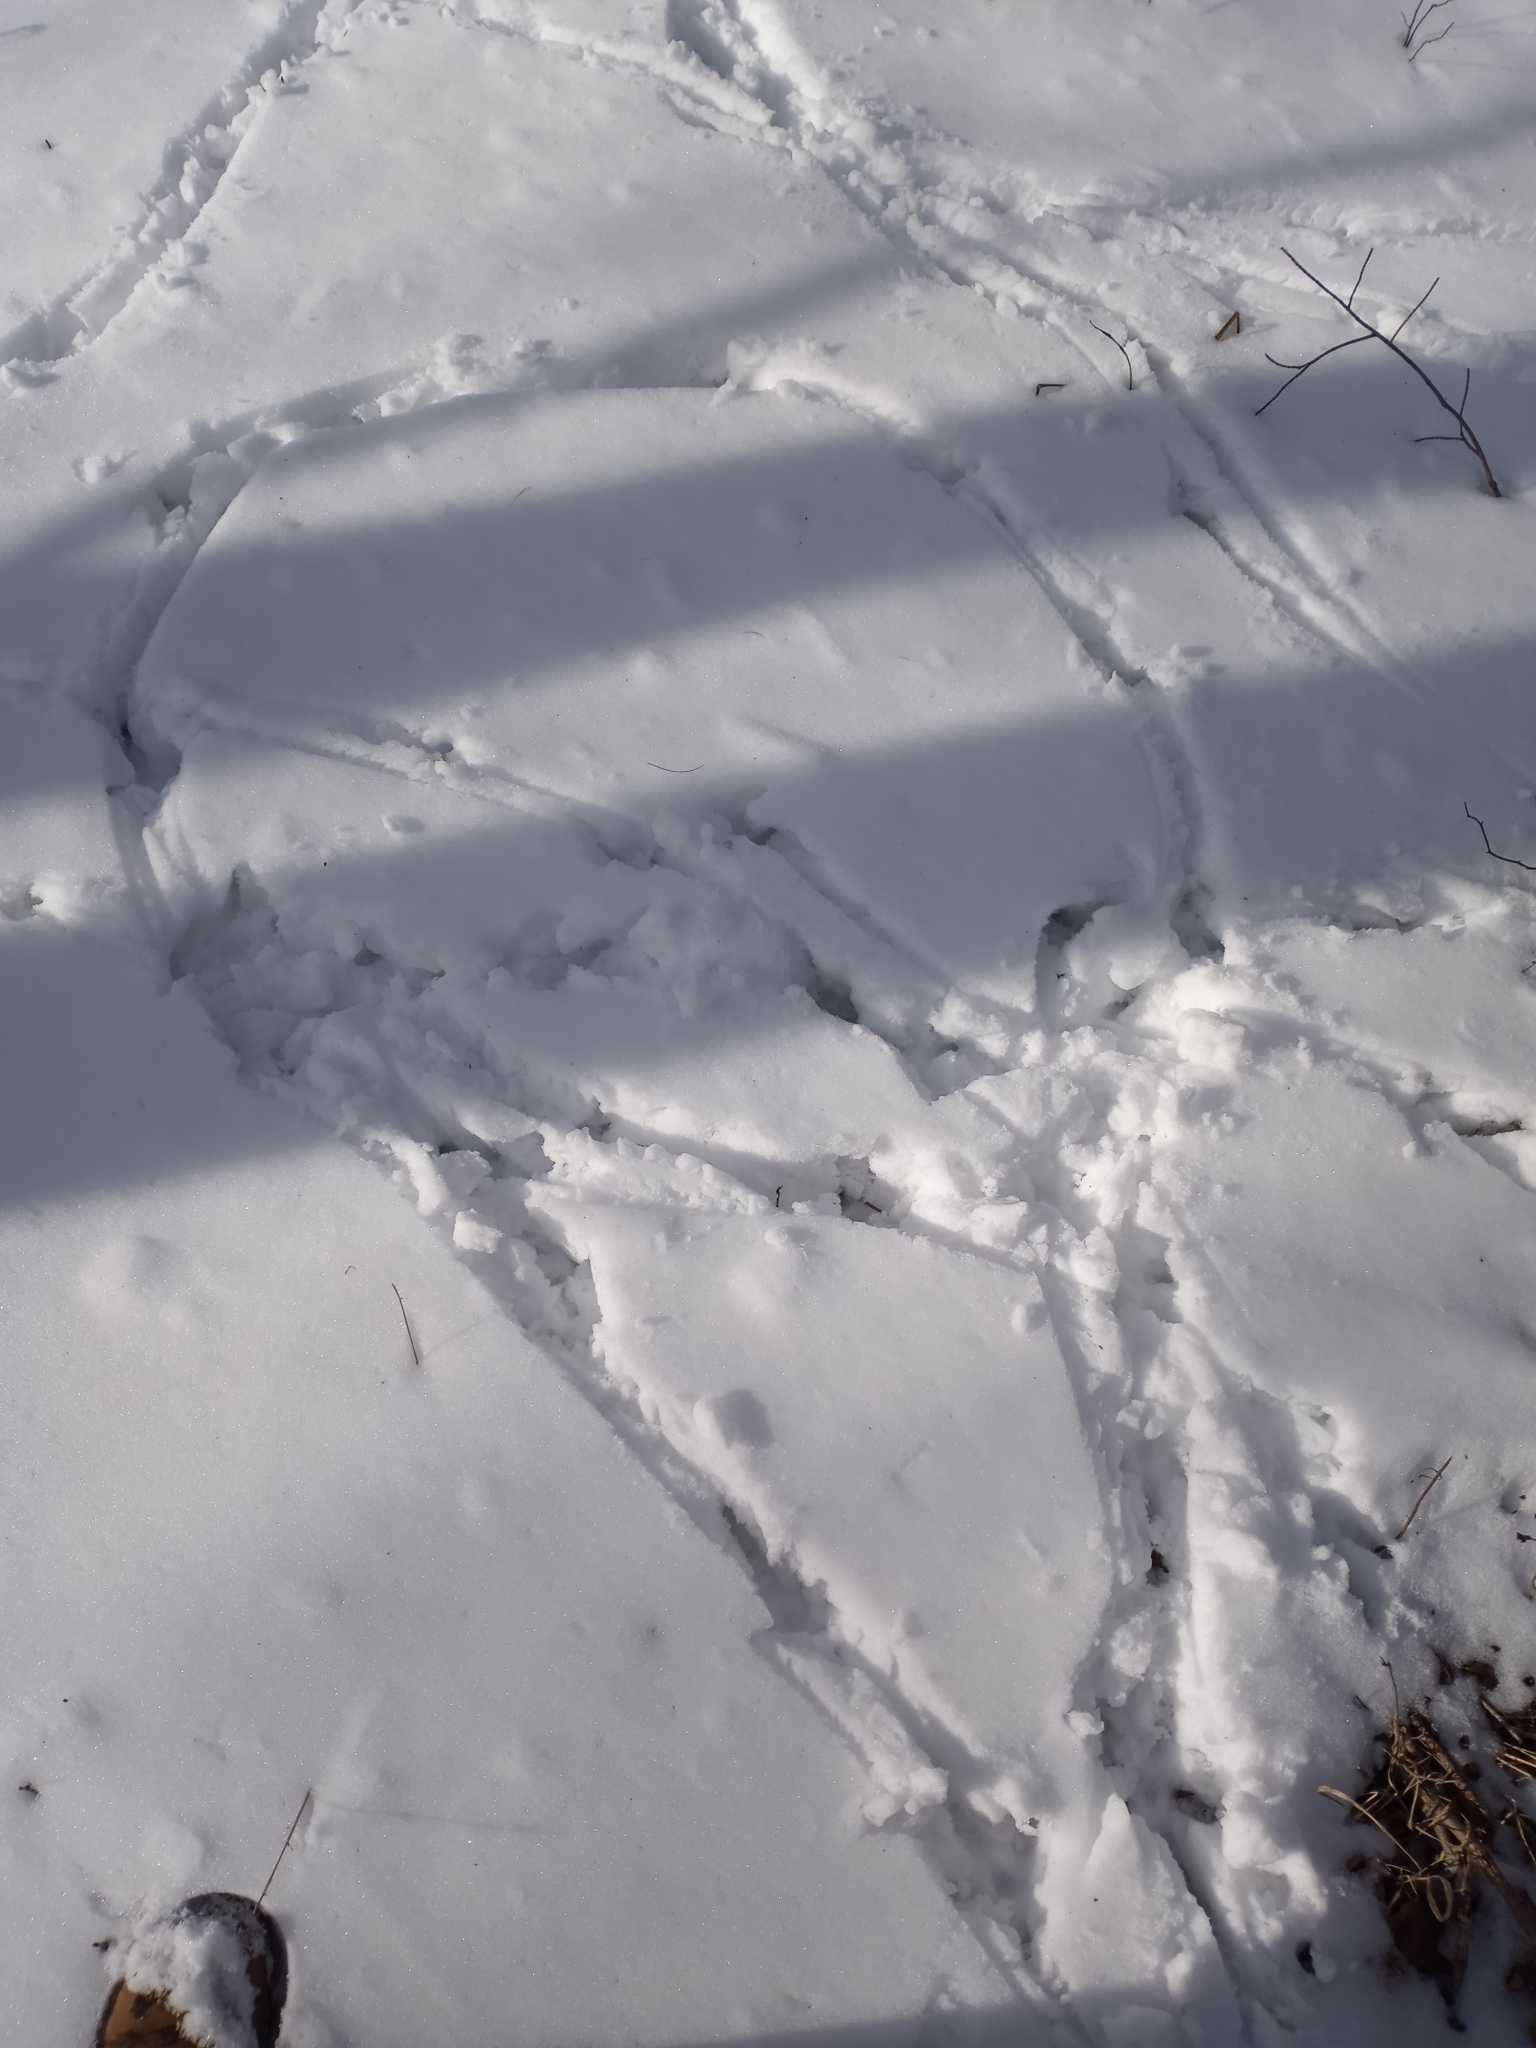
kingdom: Animalia
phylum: Chordata
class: Aves
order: Galliformes
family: Phasianidae
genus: Meleagris
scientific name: Meleagris gallopavo
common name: Wild turkey
